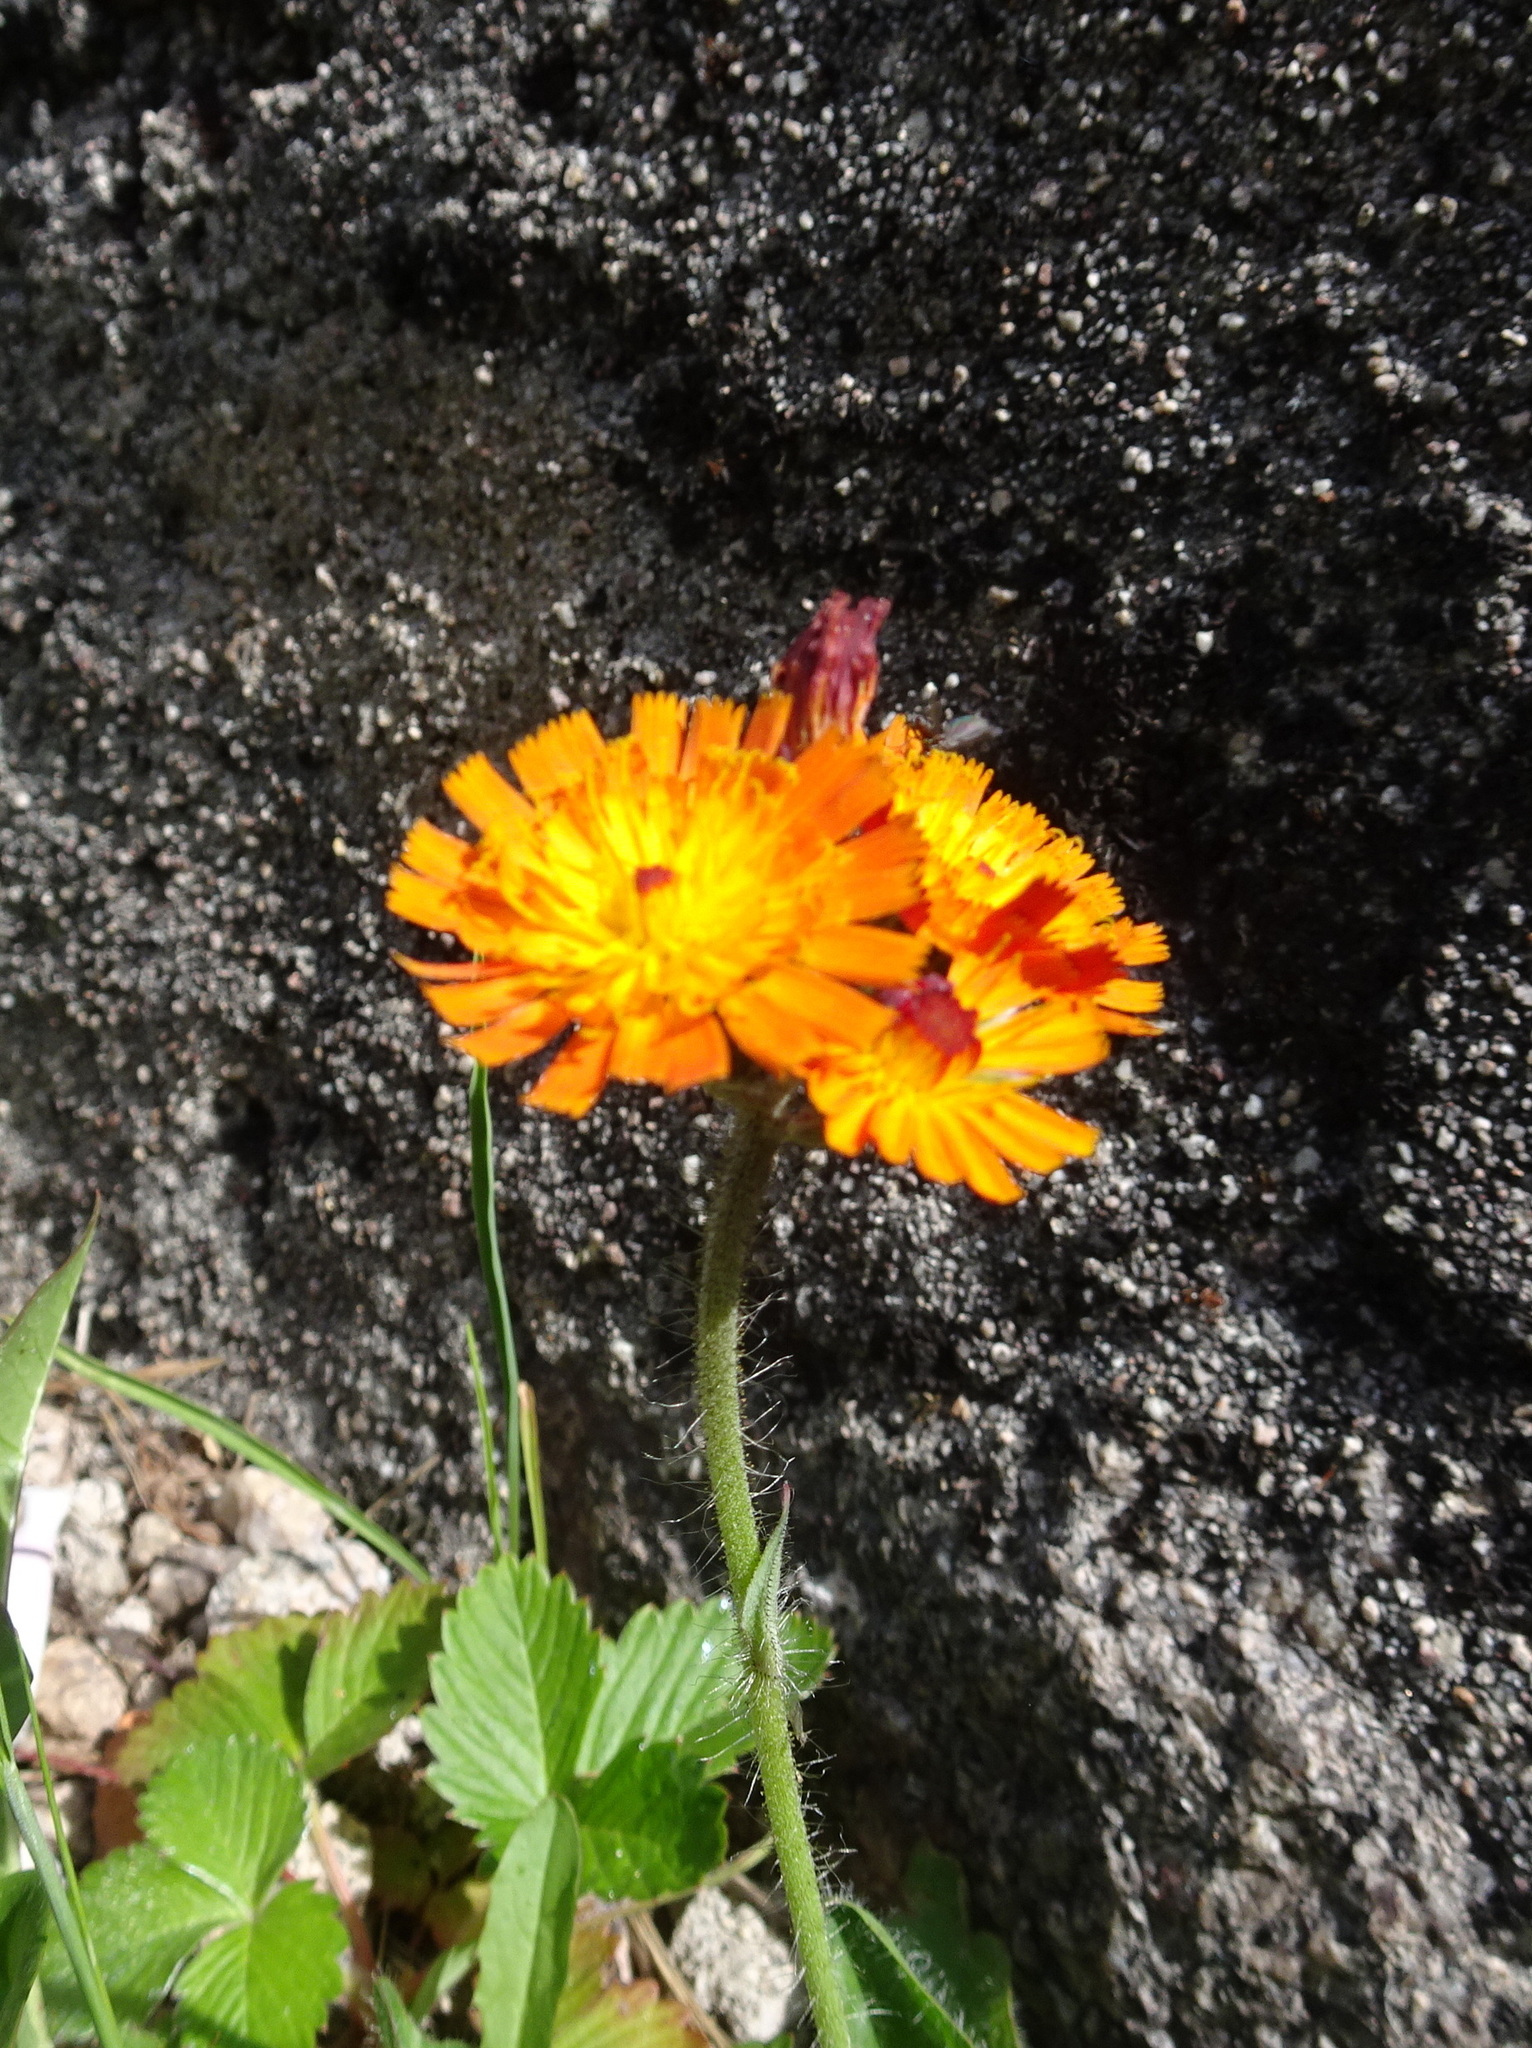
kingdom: Plantae
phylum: Tracheophyta
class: Magnoliopsida
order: Asterales
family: Asteraceae
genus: Pilosella
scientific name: Pilosella aurantiaca
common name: Fox-and-cubs
